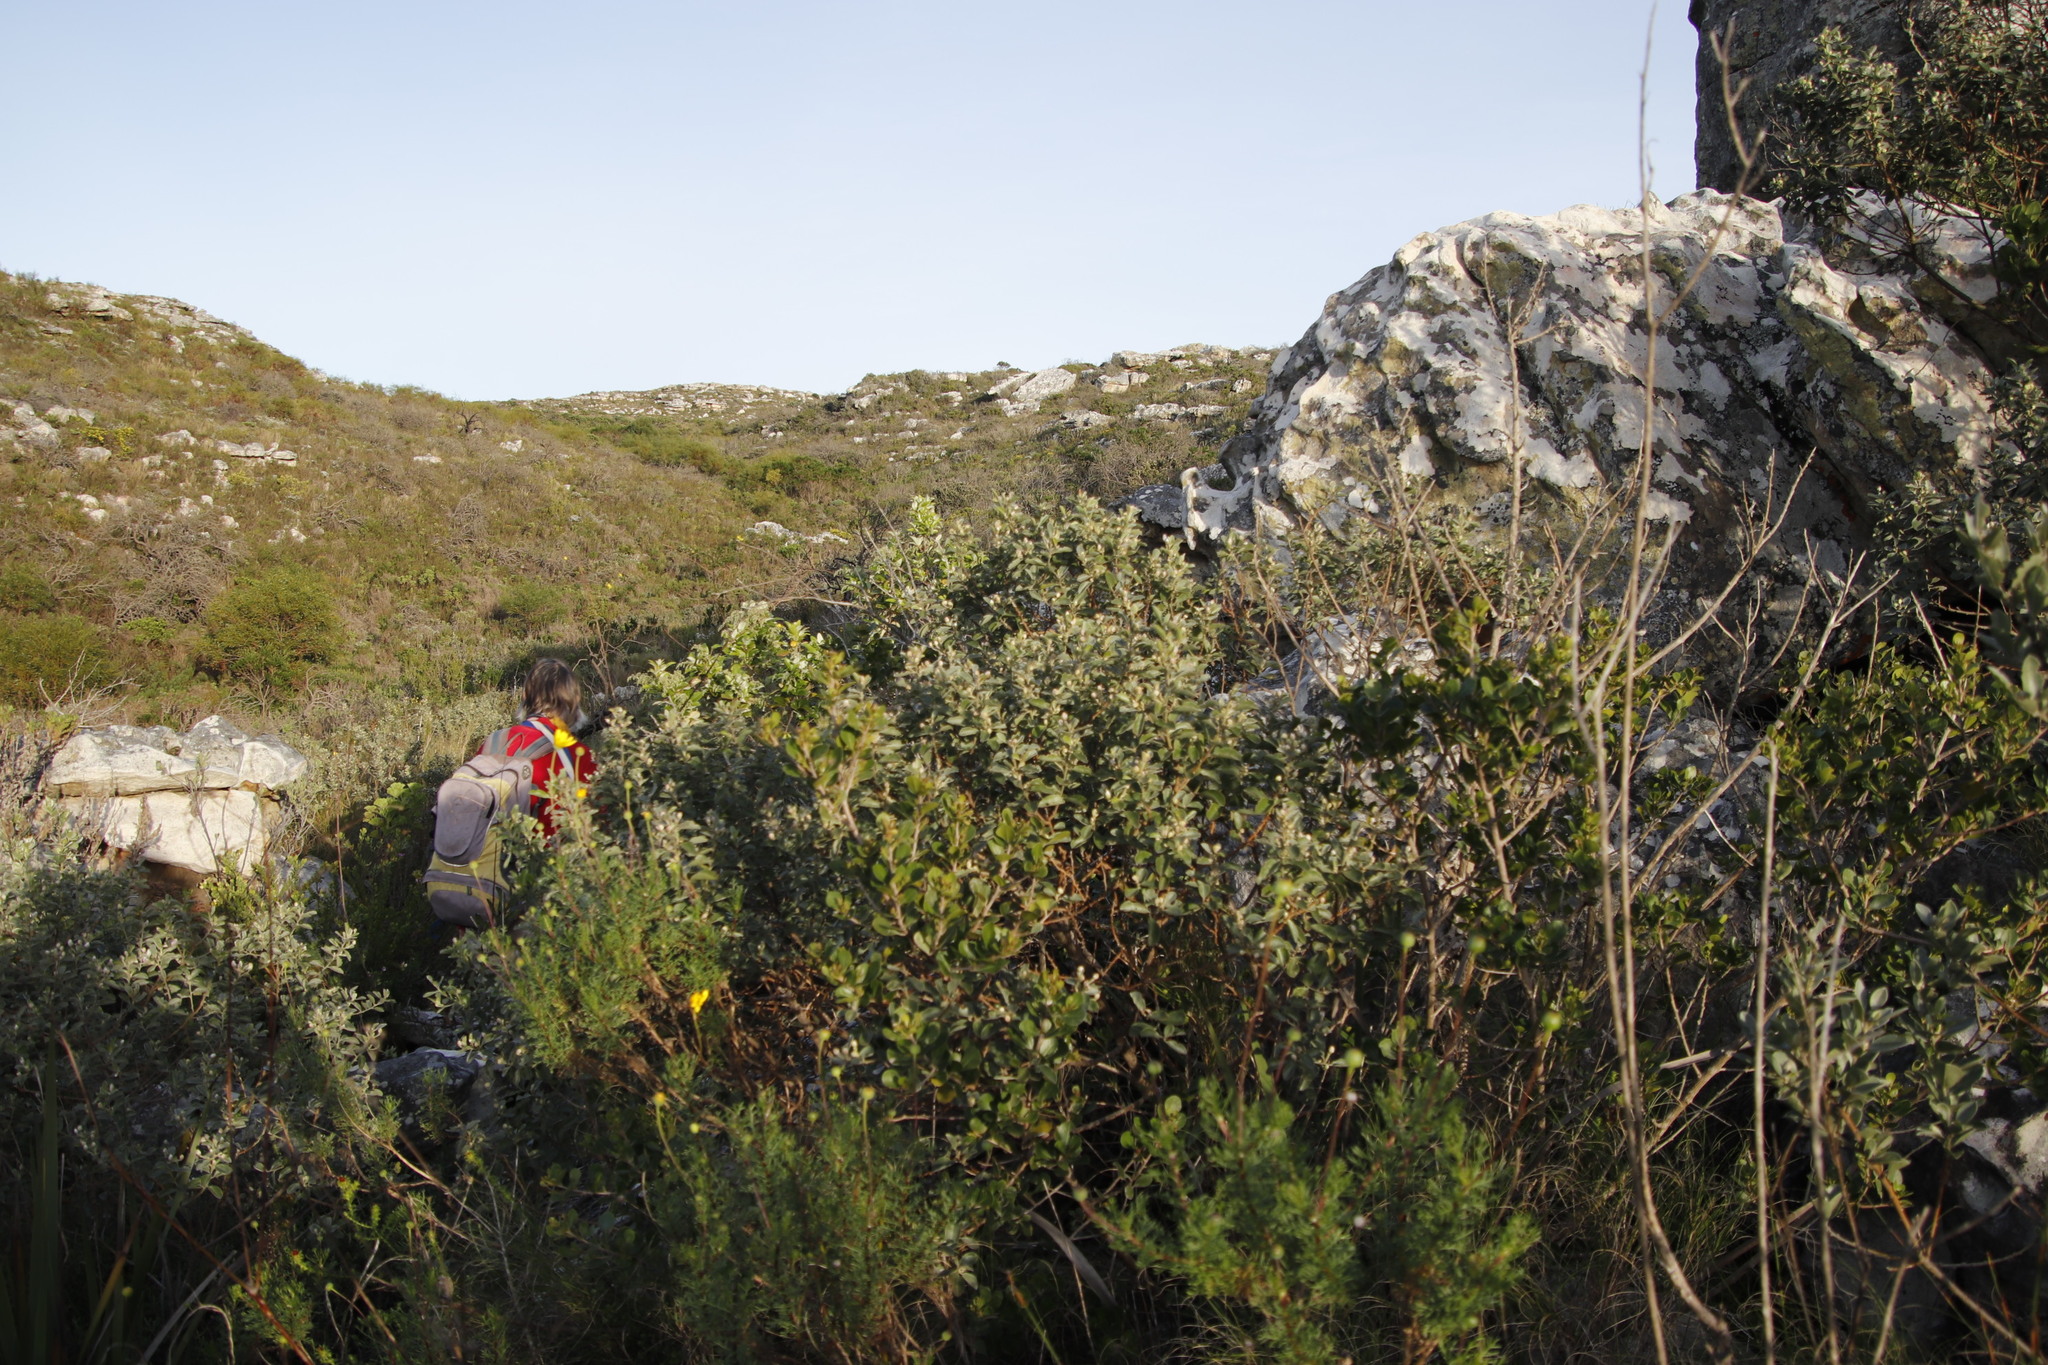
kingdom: Plantae
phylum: Tracheophyta
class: Magnoliopsida
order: Asterales
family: Asteraceae
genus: Tarchonanthus
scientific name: Tarchonanthus littoralis
